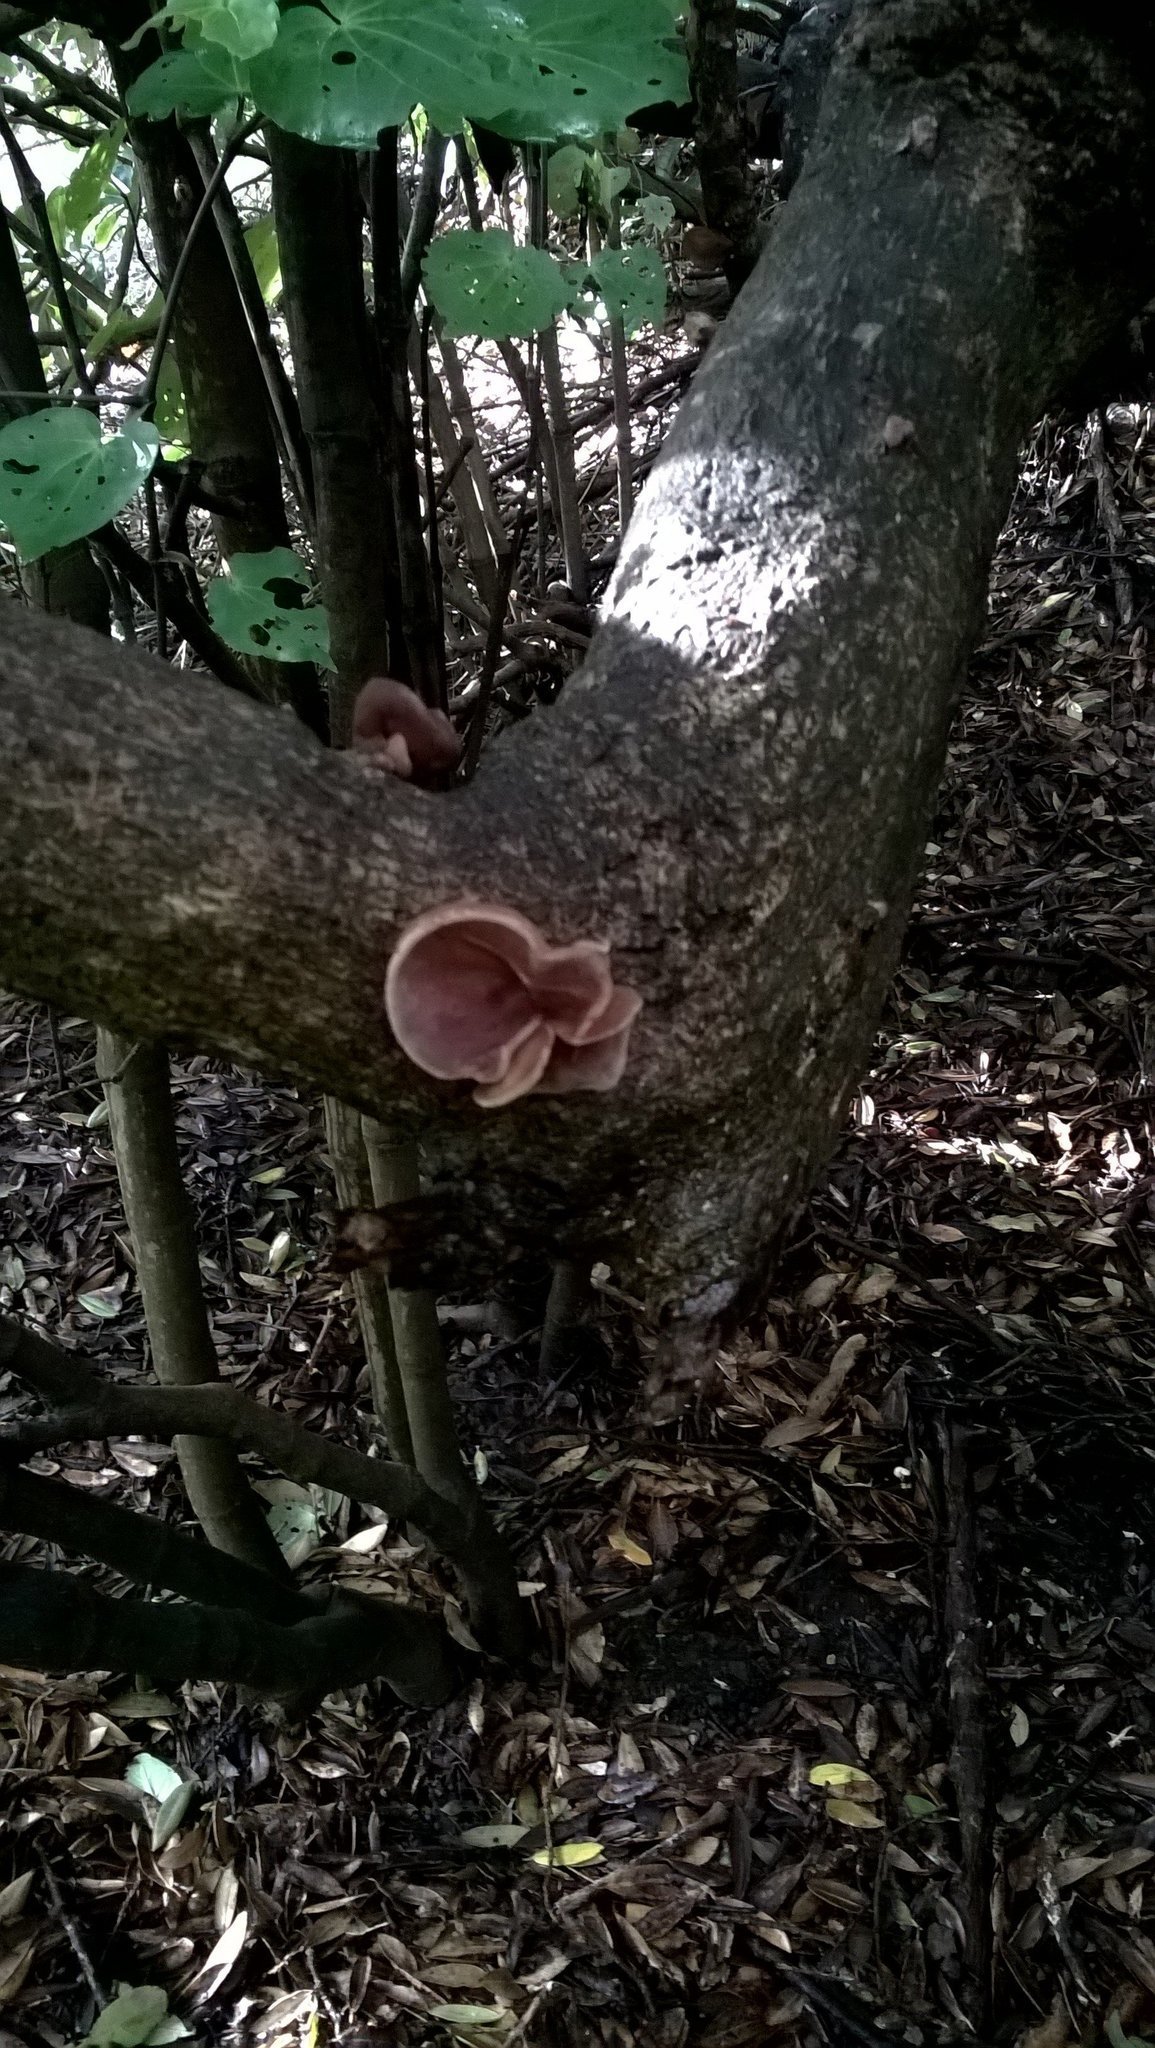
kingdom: Fungi
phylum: Basidiomycota
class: Agaricomycetes
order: Auriculariales
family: Auriculariaceae
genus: Auricularia
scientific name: Auricularia cornea
